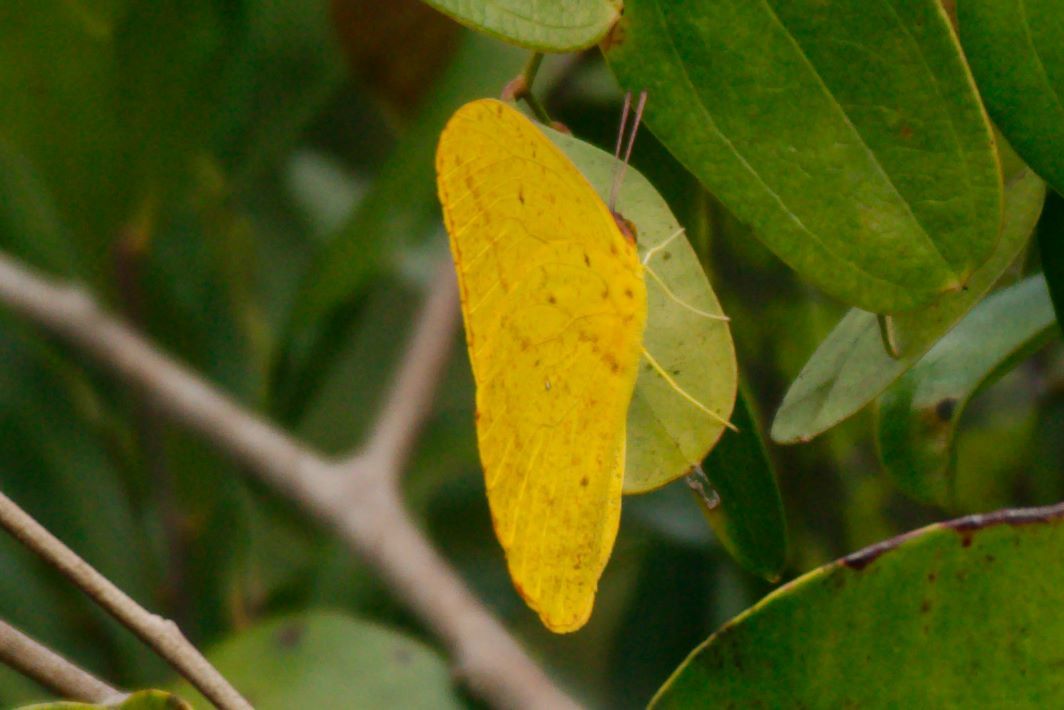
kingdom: Animalia
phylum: Arthropoda
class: Insecta
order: Lepidoptera
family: Pieridae
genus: Phoebis
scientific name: Phoebis agarithe
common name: Large orange sulphur
